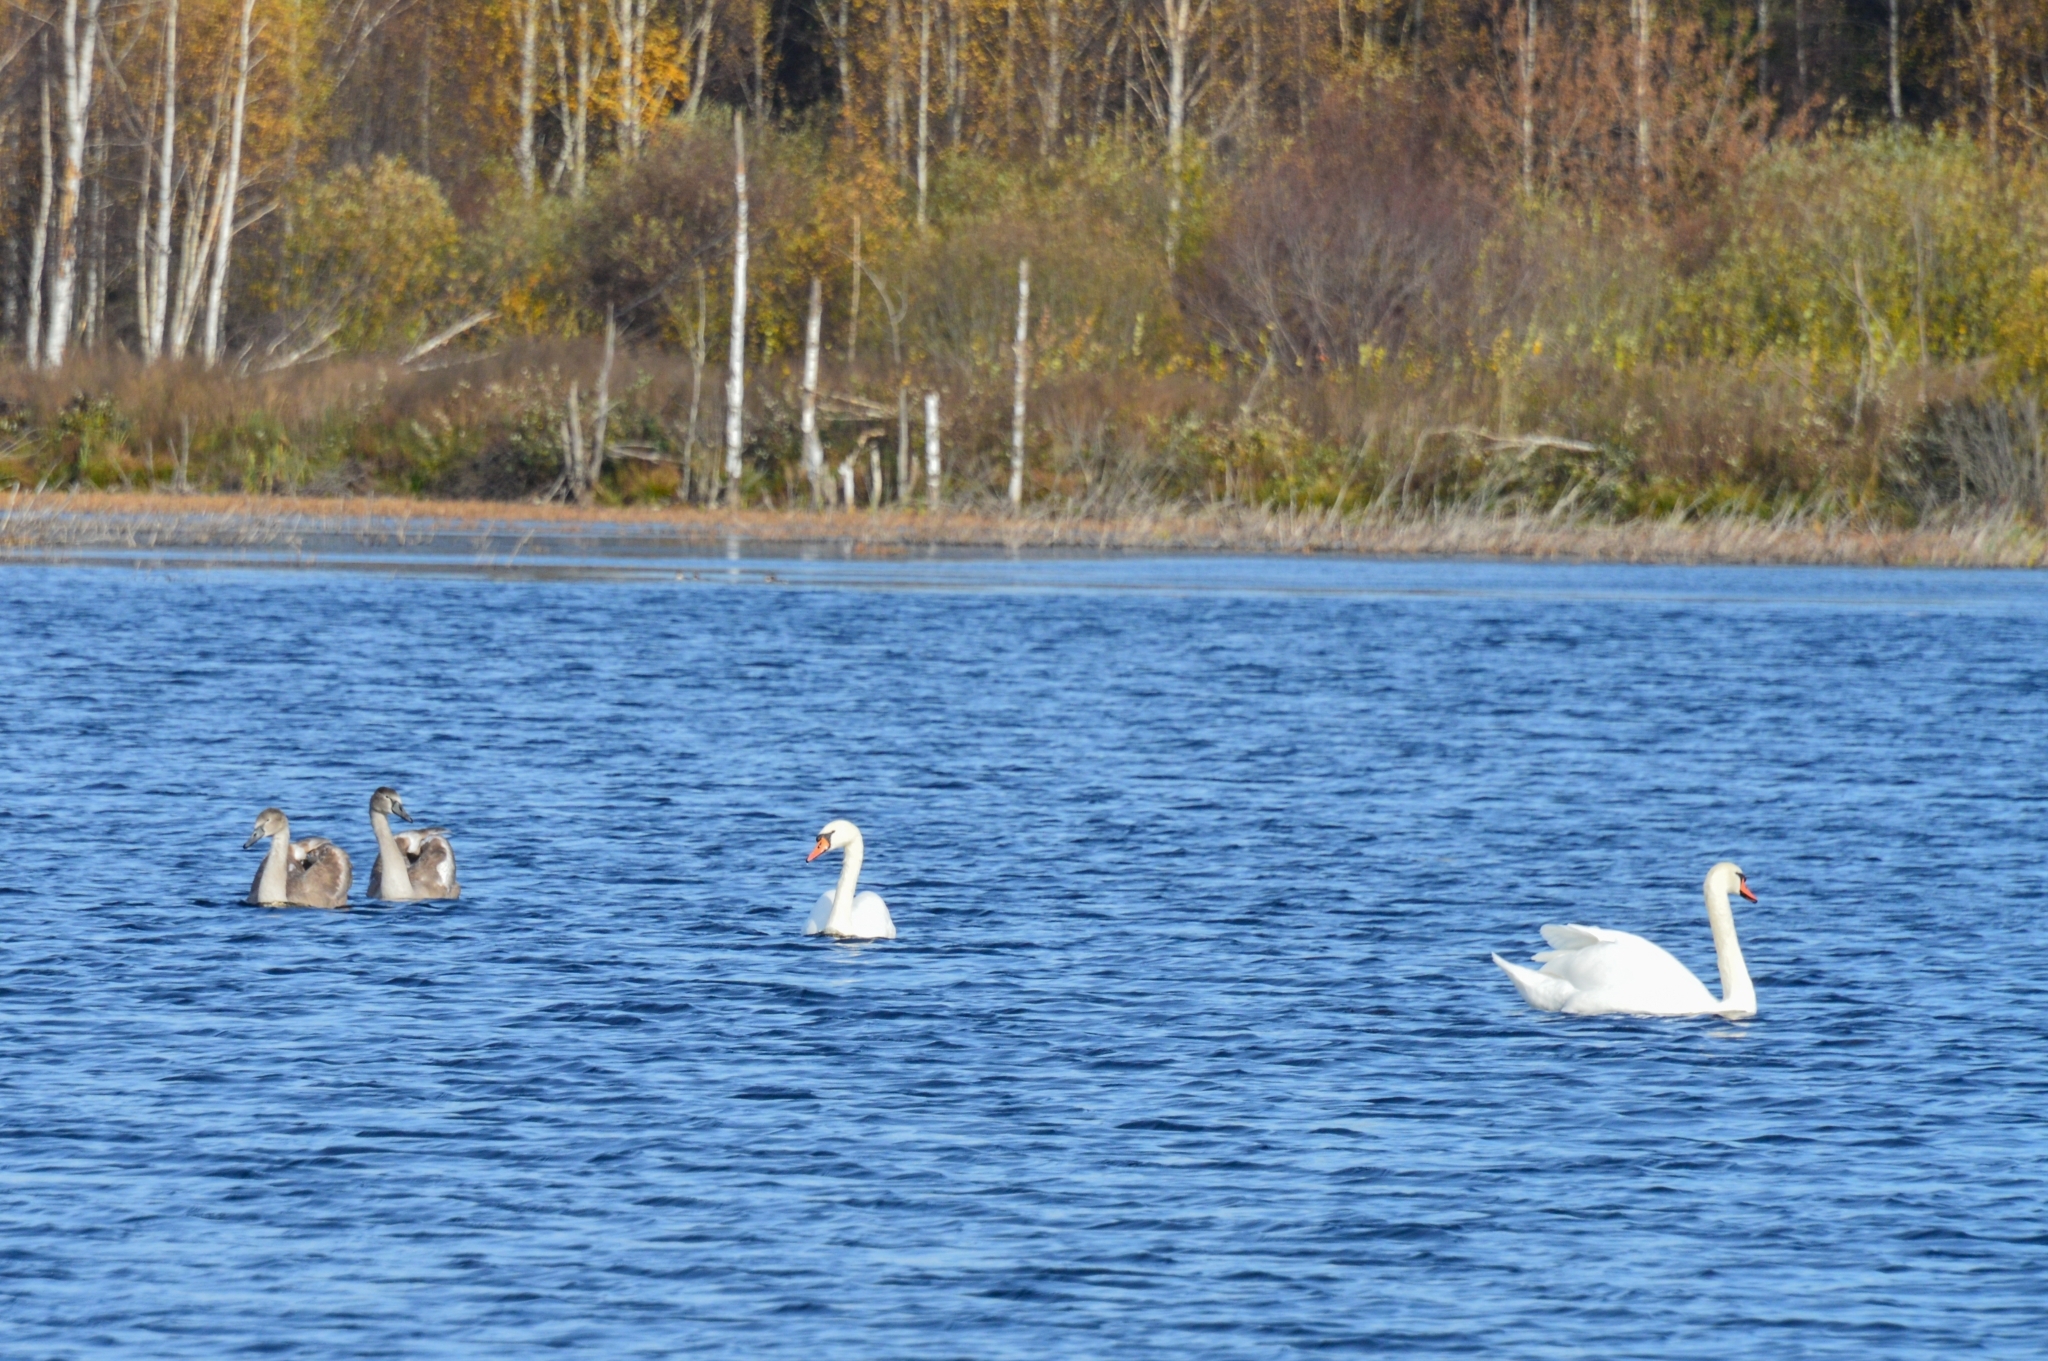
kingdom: Animalia
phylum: Chordata
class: Aves
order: Anseriformes
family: Anatidae
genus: Cygnus
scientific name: Cygnus olor
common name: Mute swan
